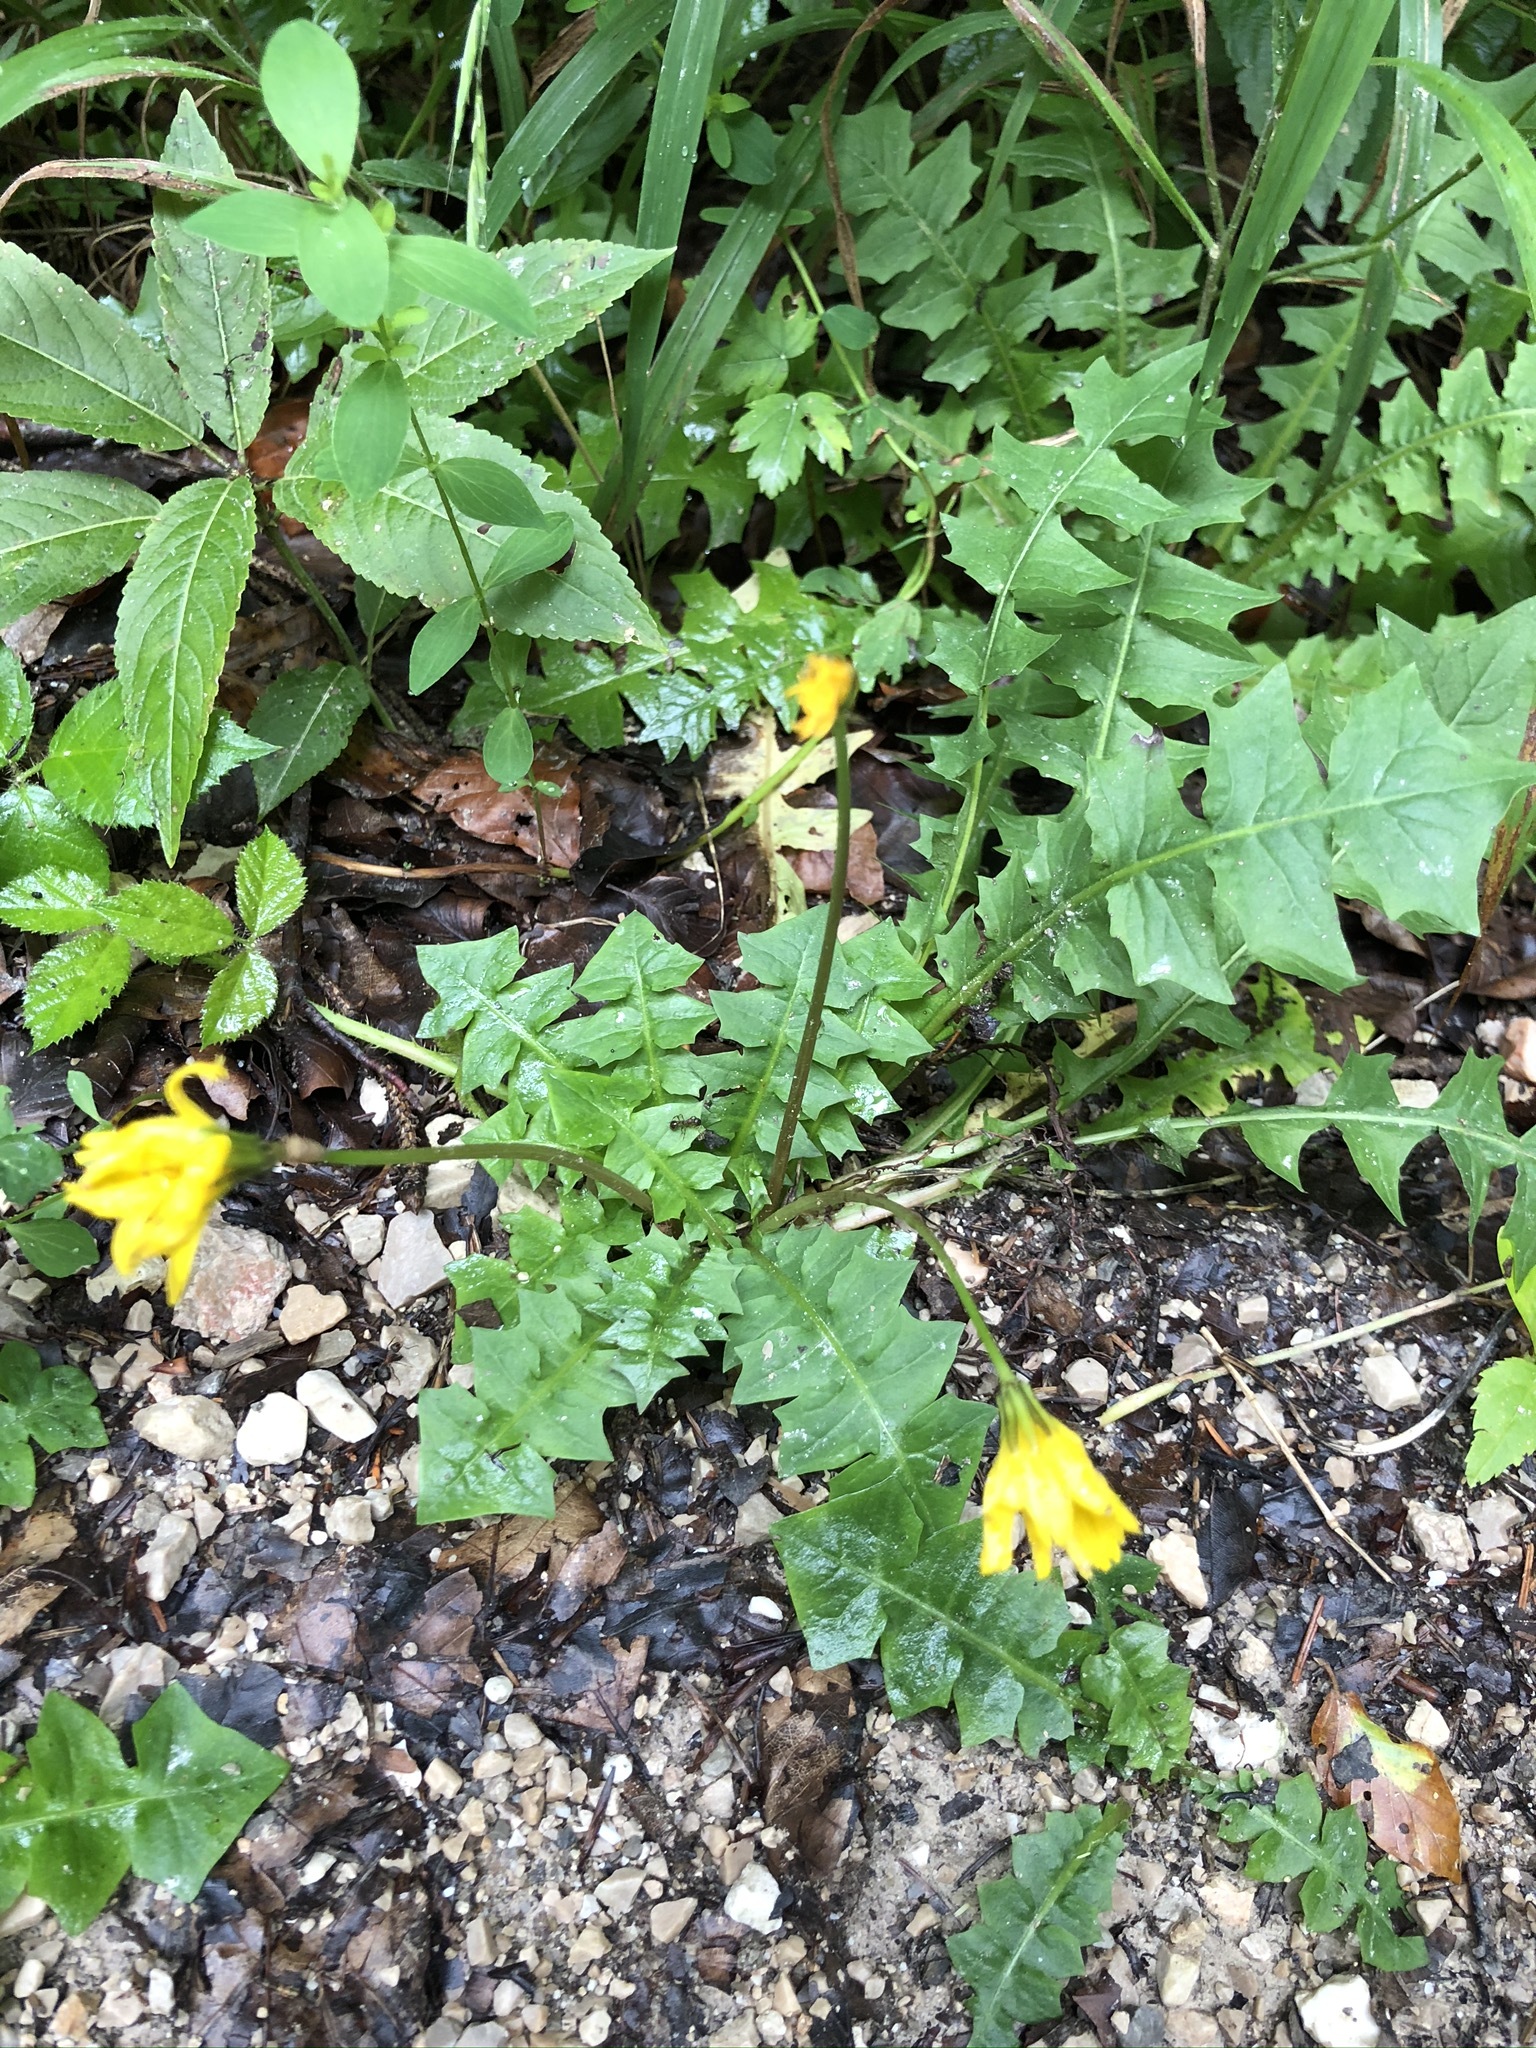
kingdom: Plantae
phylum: Tracheophyta
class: Magnoliopsida
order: Asterales
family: Asteraceae
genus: Aposeris
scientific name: Aposeris foetida
